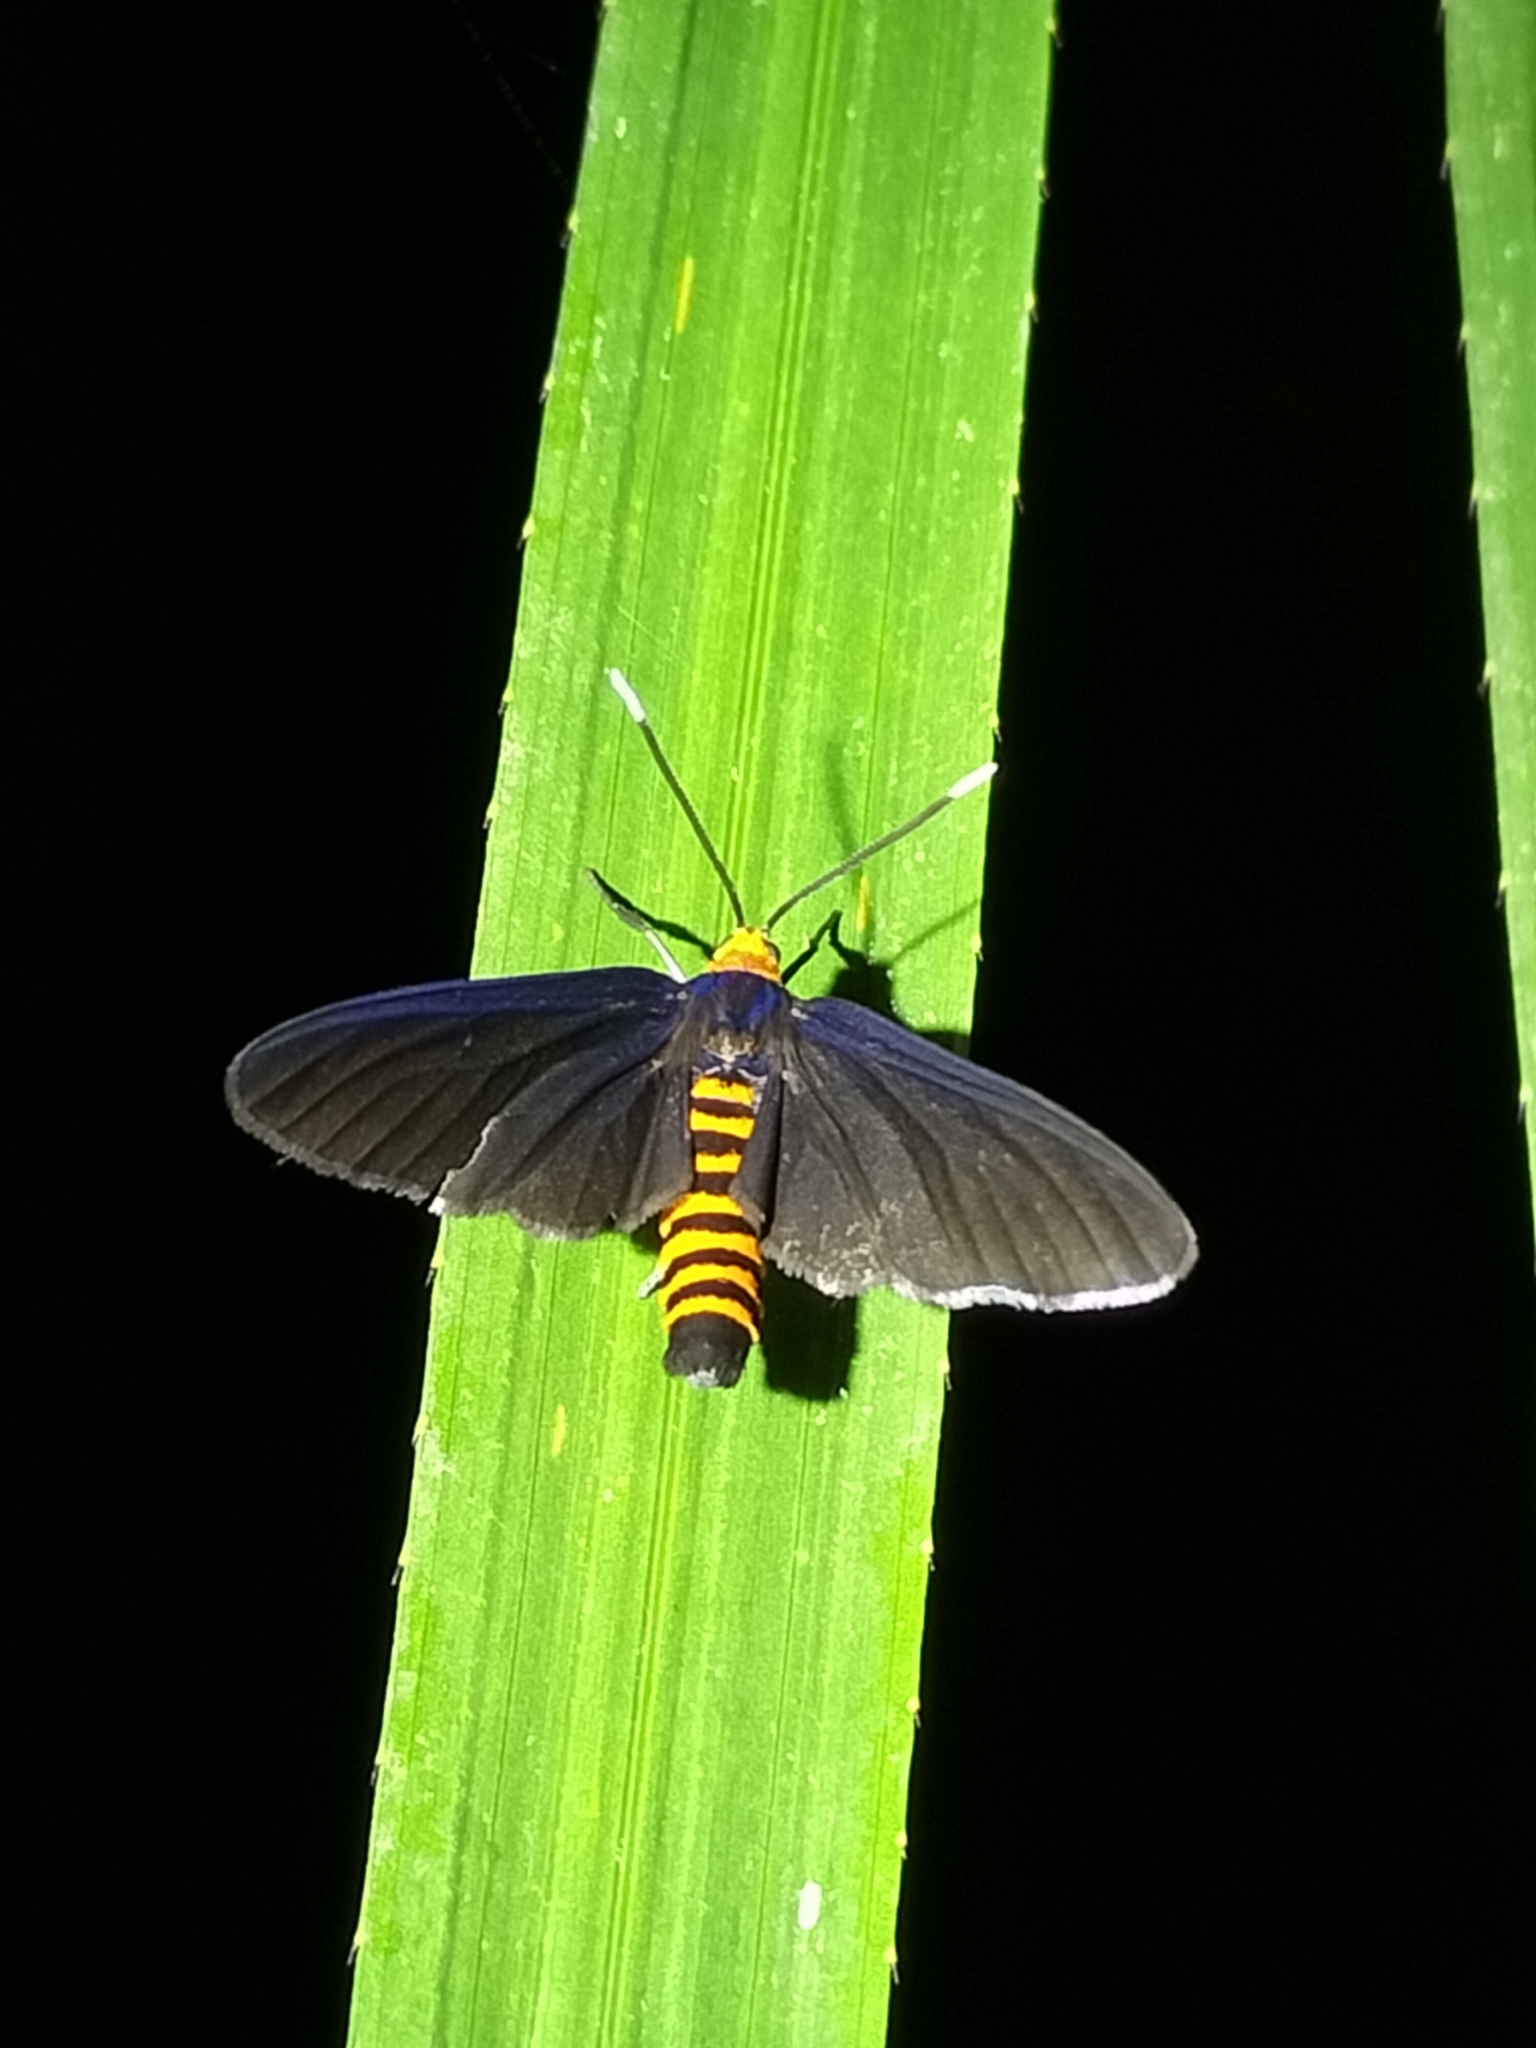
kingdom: Animalia
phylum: Arthropoda
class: Insecta
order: Lepidoptera
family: Erebidae
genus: Amata
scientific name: Amata bicolor
